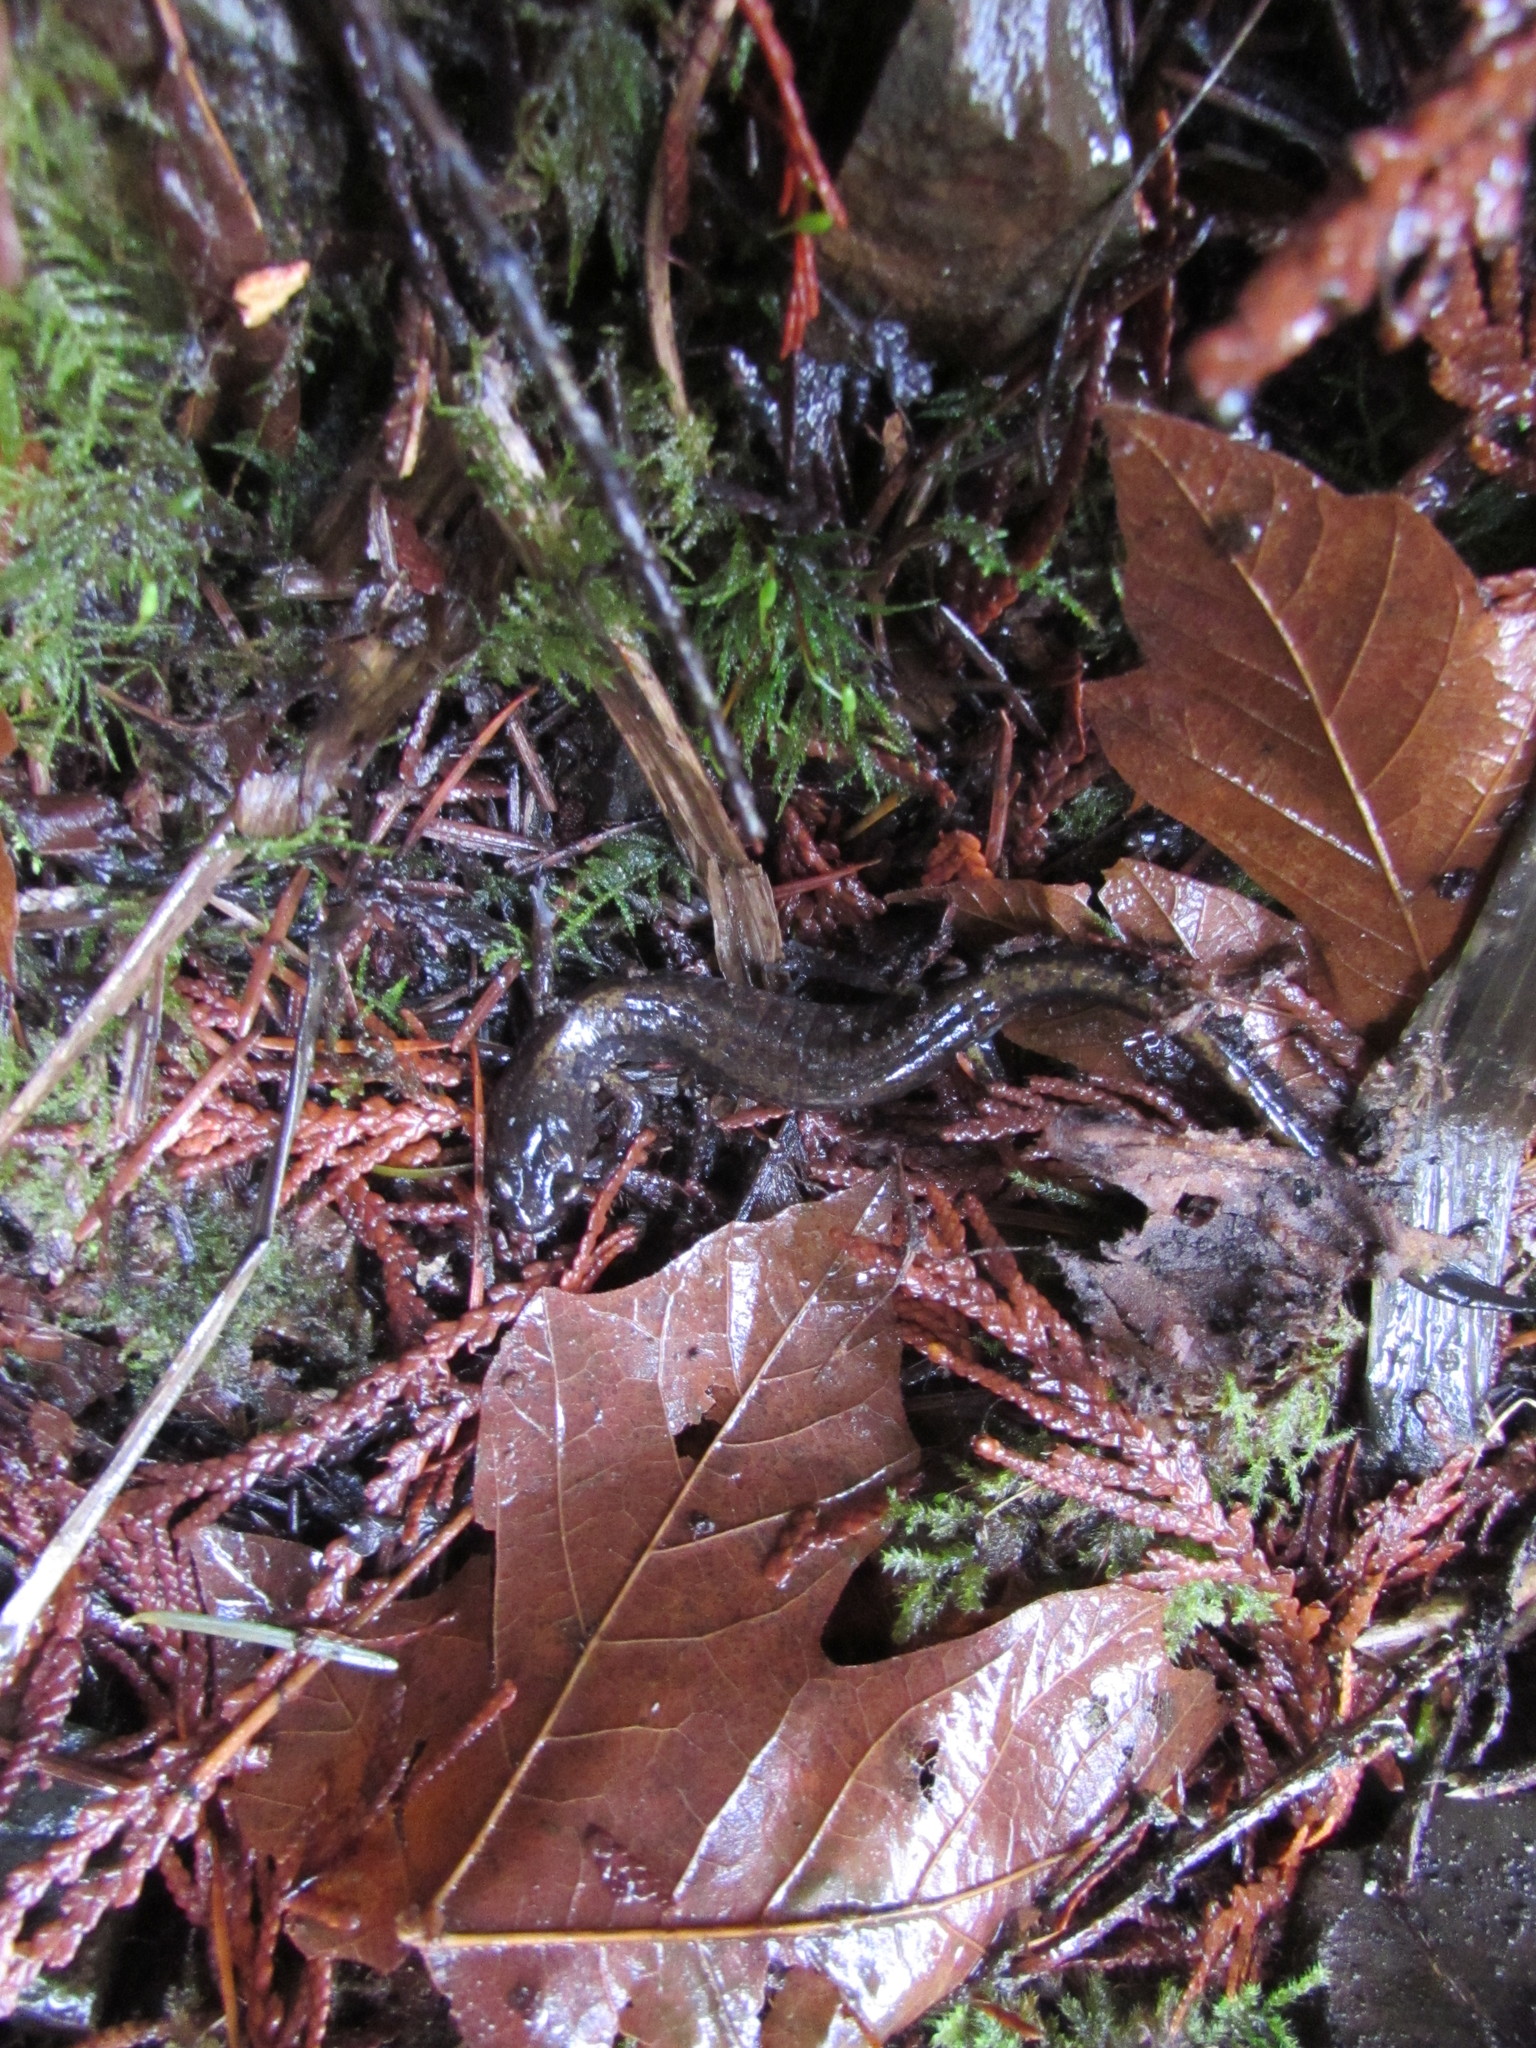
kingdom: Animalia
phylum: Chordata
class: Amphibia
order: Caudata
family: Plethodontidae
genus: Plethodon
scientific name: Plethodon dunni
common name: Dunn's salamander
